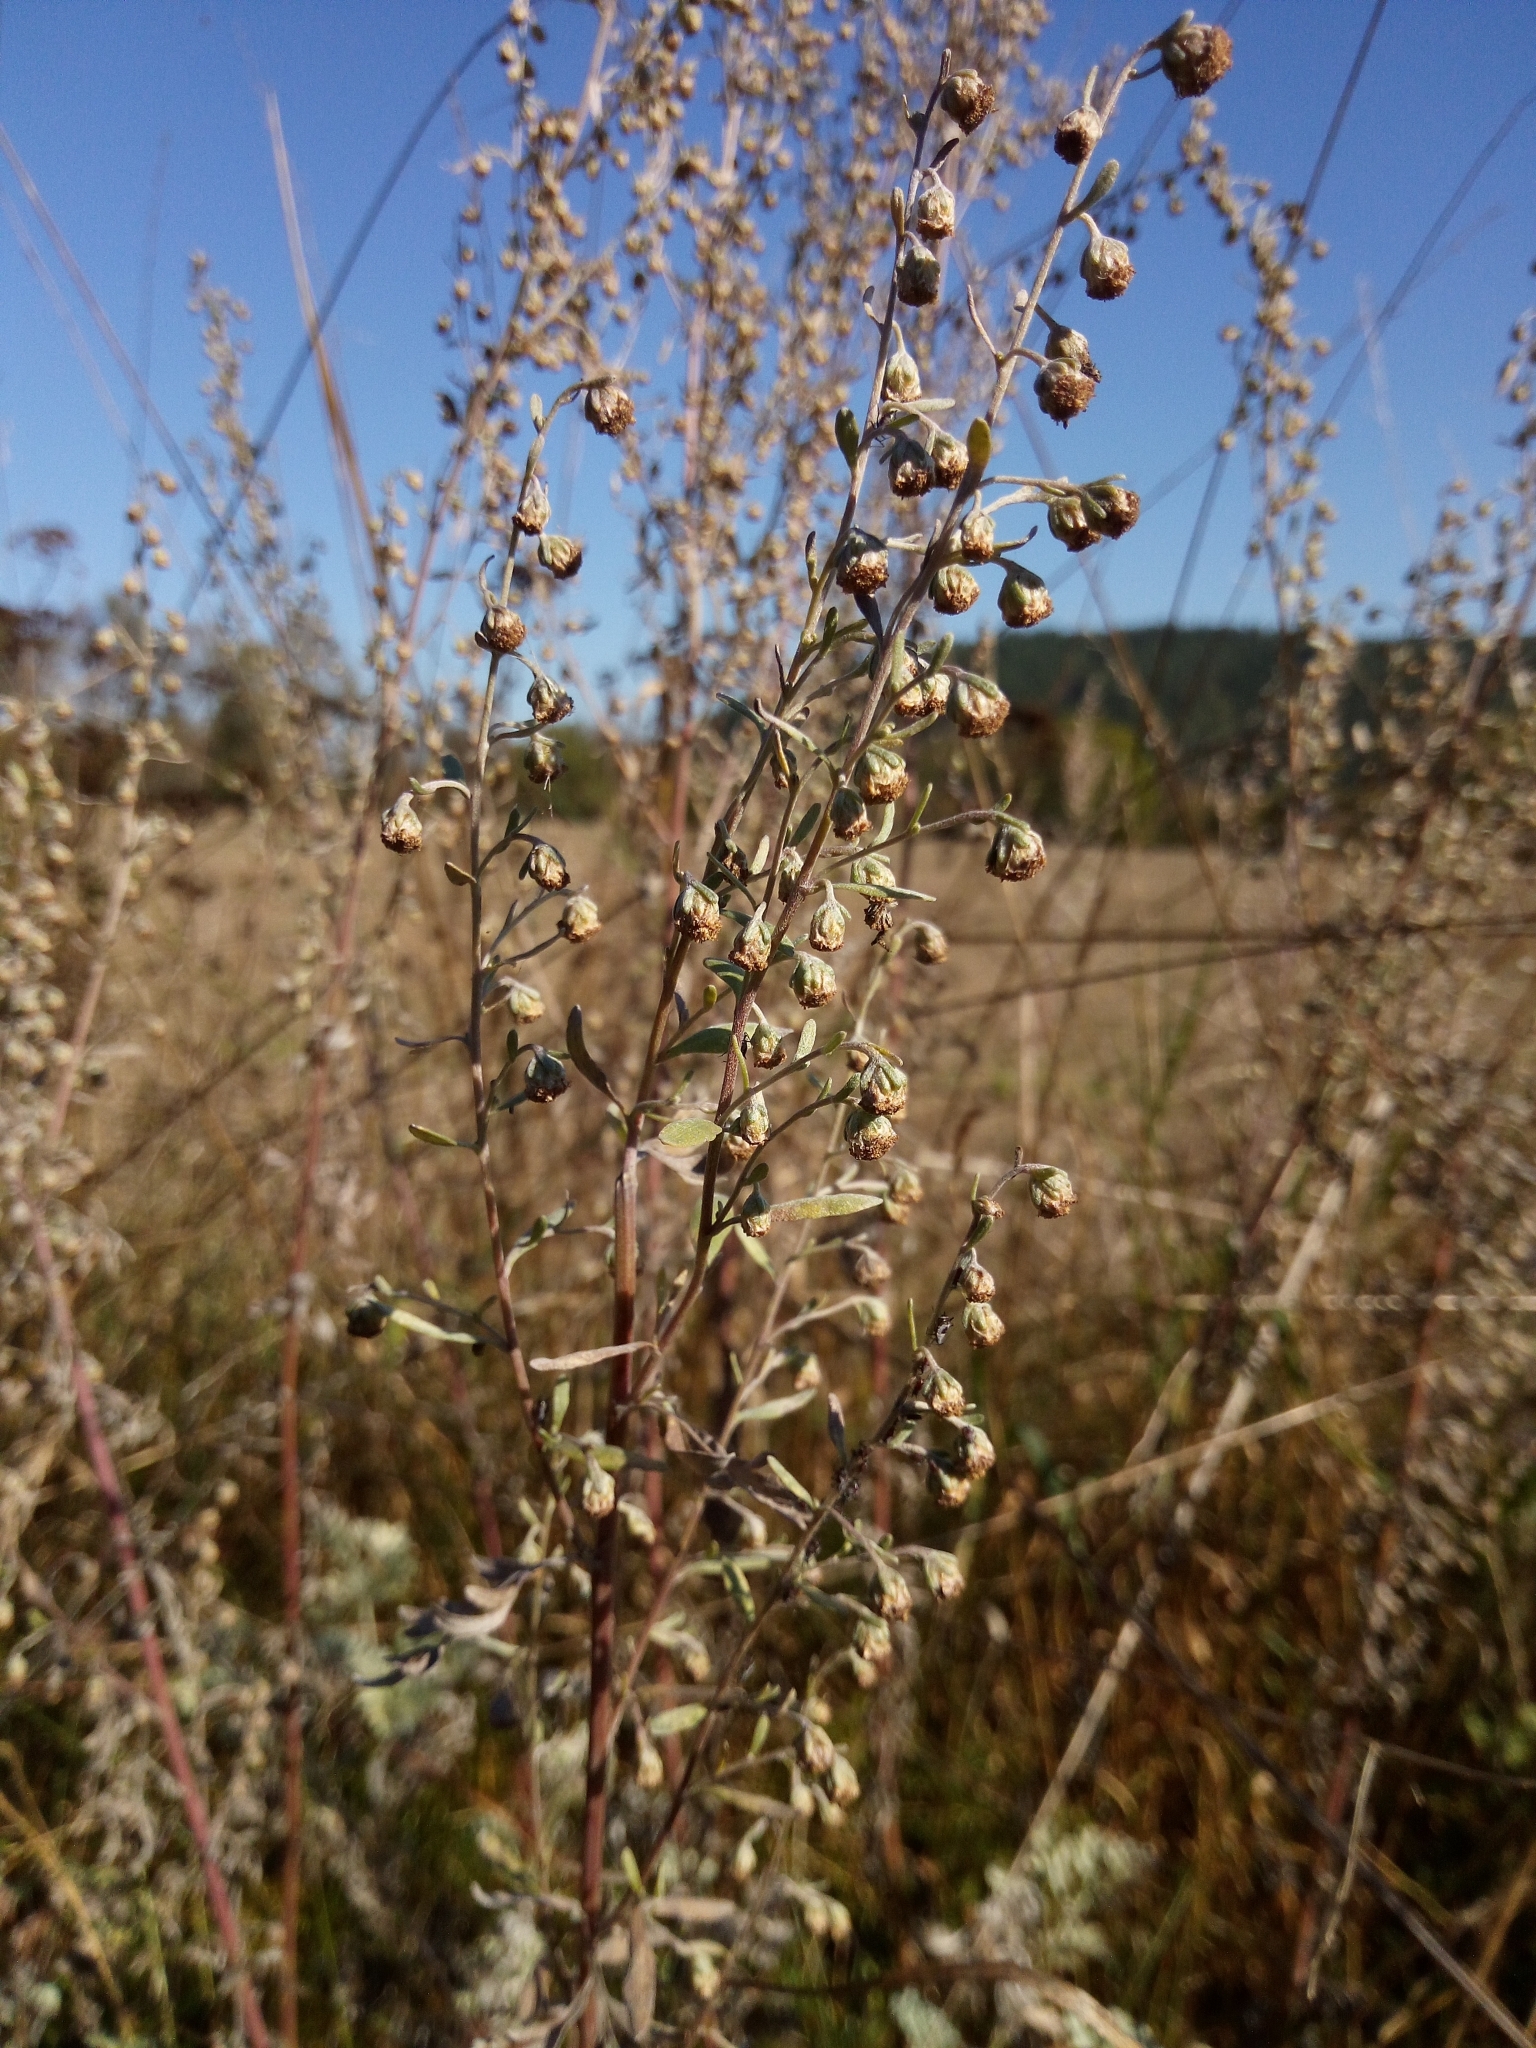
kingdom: Plantae
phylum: Tracheophyta
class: Magnoliopsida
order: Asterales
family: Asteraceae
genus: Artemisia
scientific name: Artemisia absinthium
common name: Wormwood
